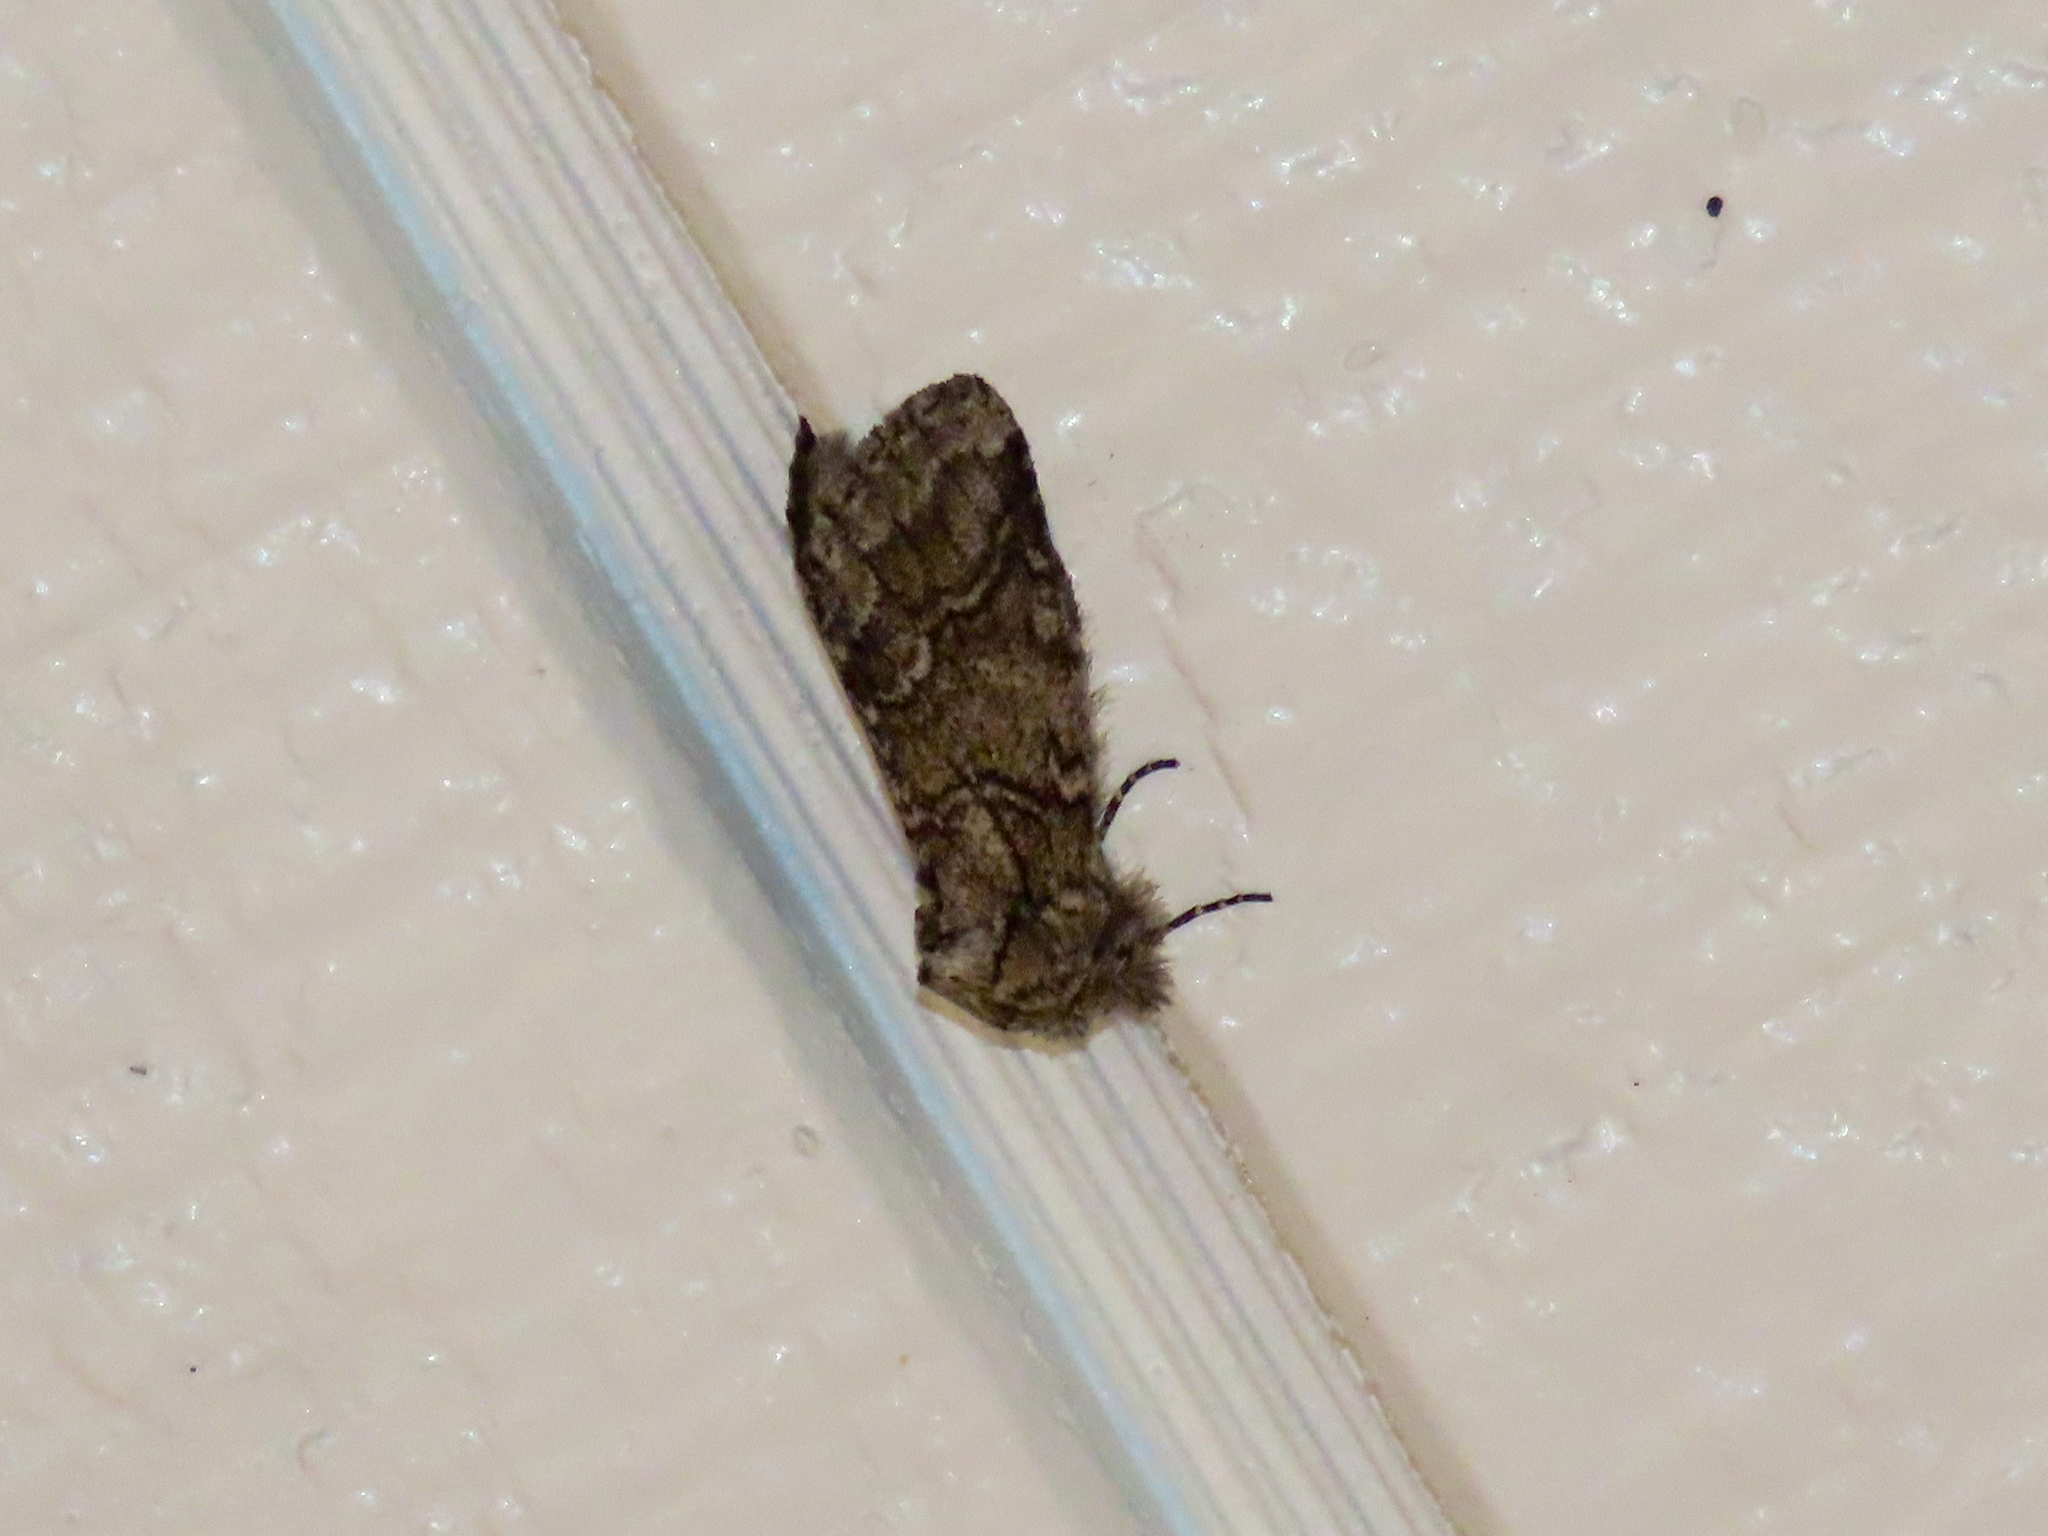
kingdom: Animalia
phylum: Arthropoda
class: Insecta
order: Lepidoptera
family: Notodontidae
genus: Lochmaeus
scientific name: Lochmaeus bilineata
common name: Double-lined prominent
